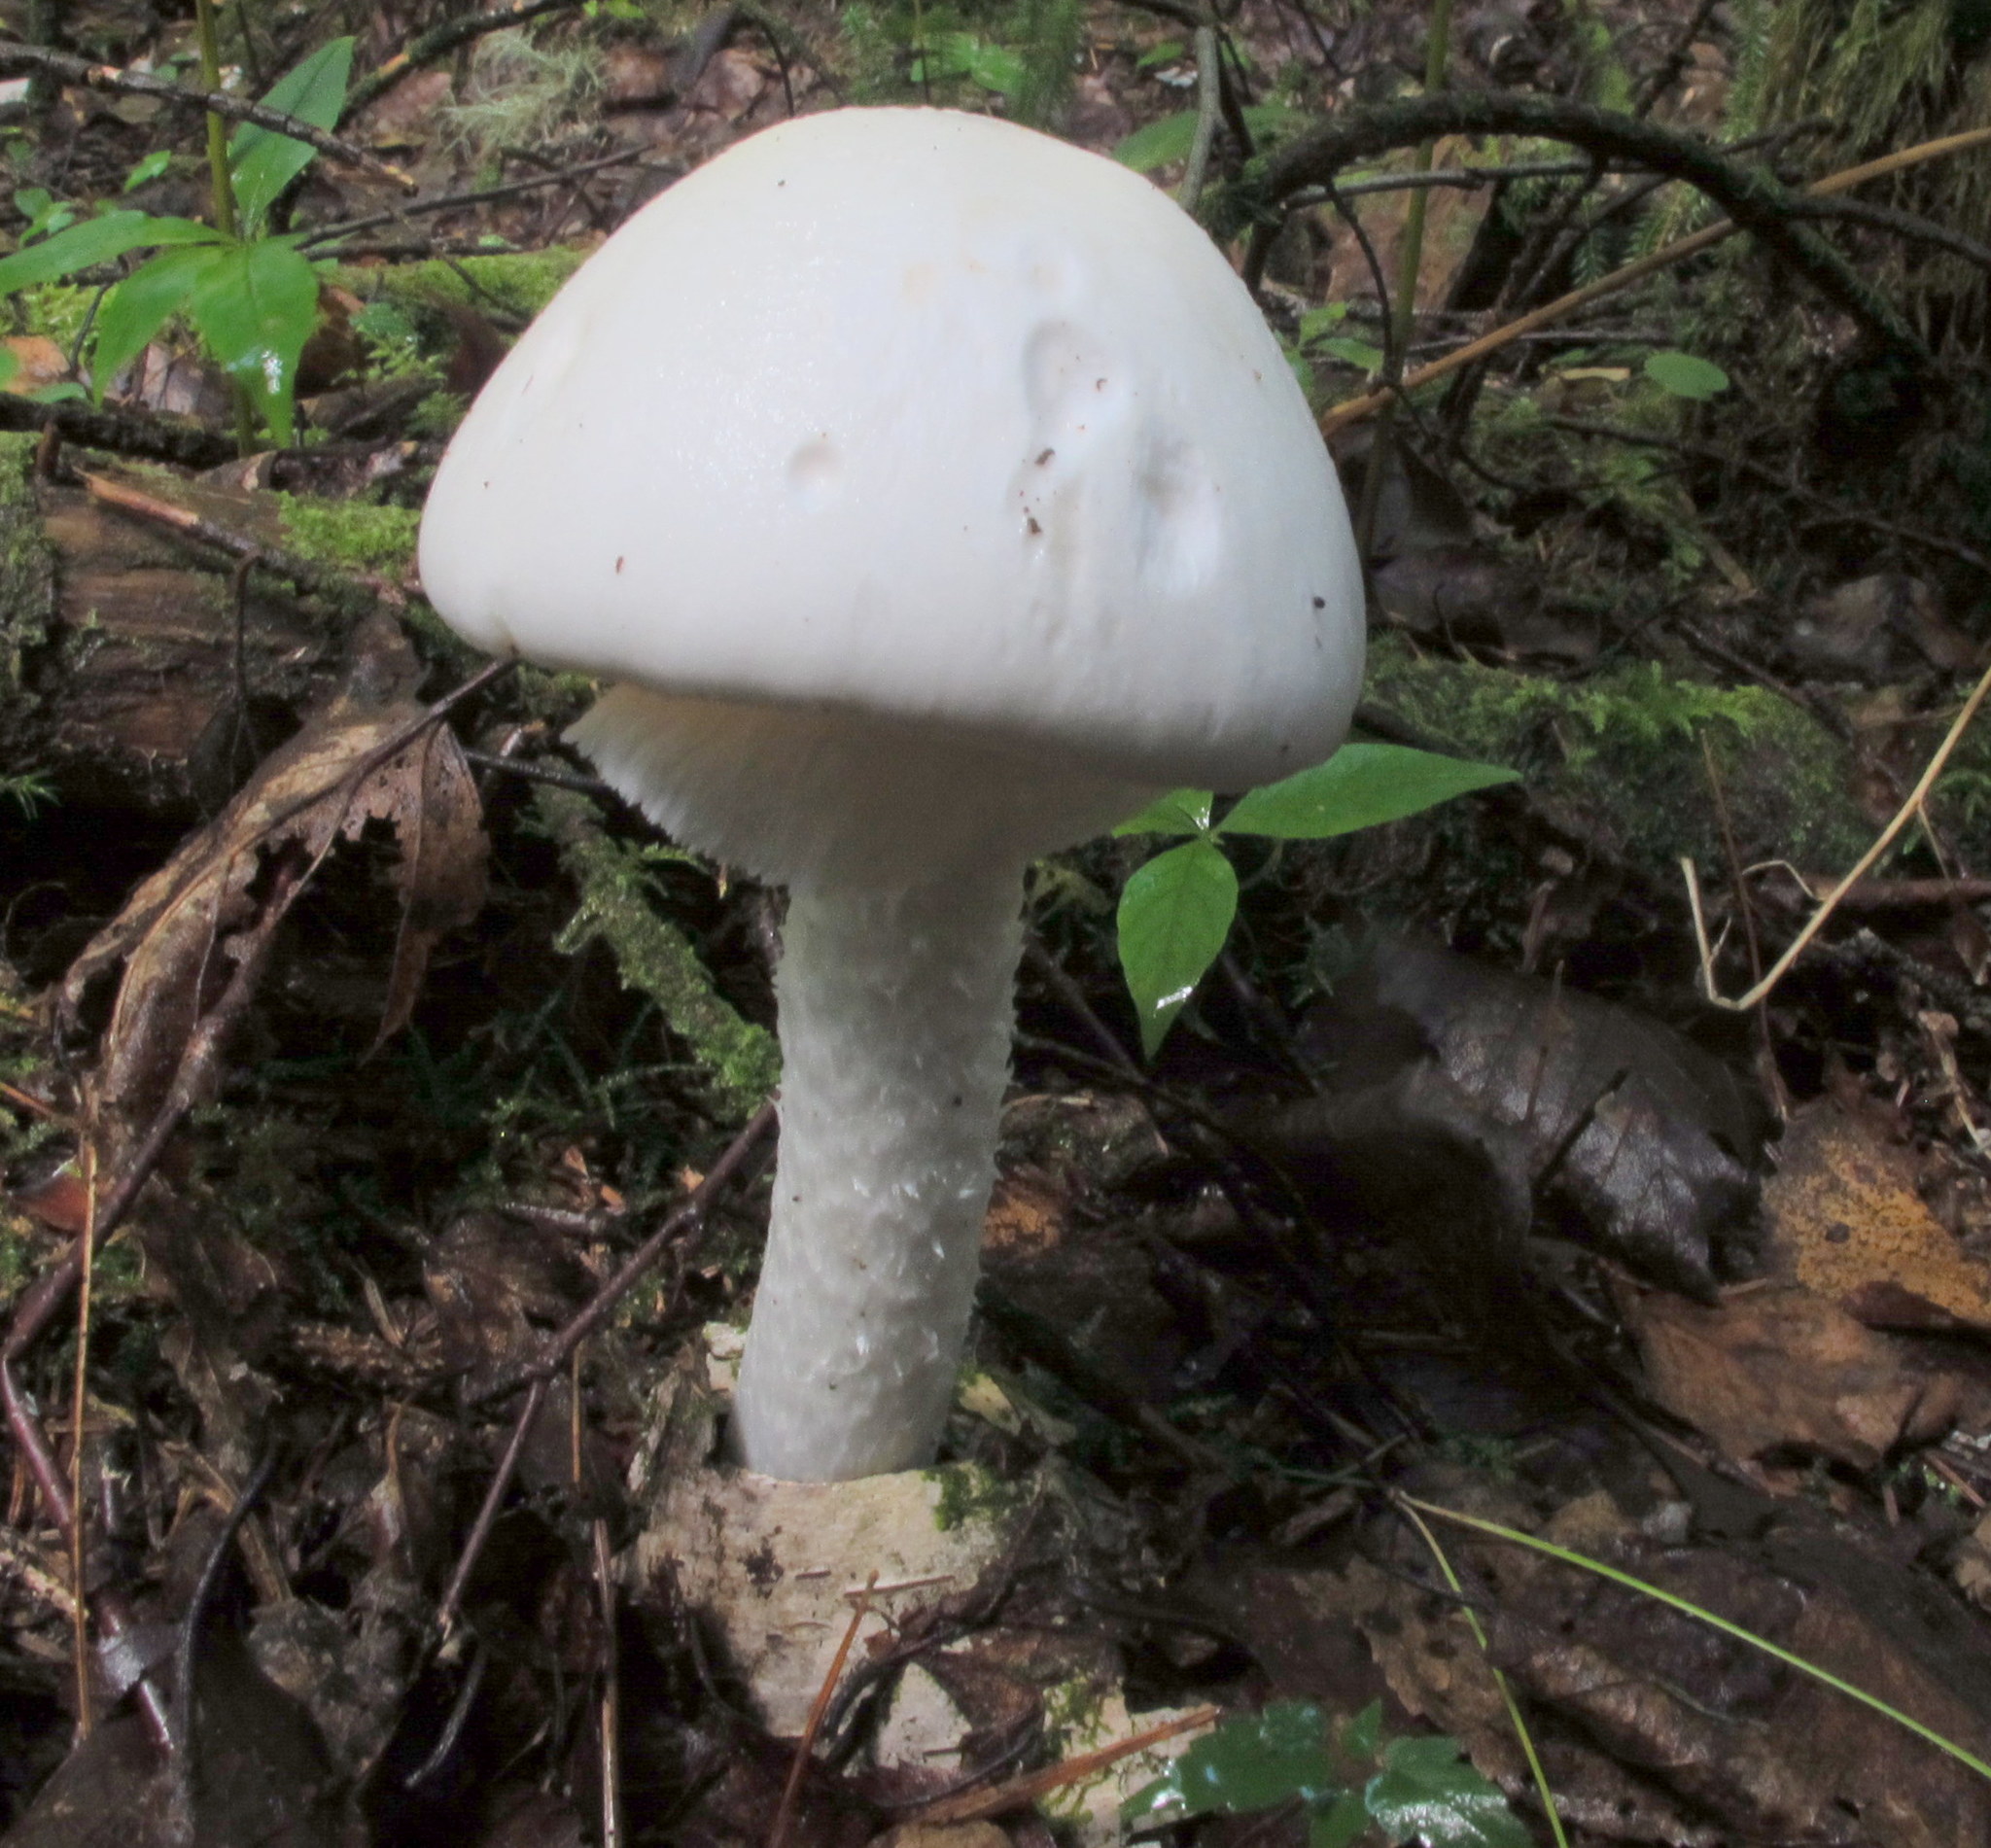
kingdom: Fungi
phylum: Basidiomycota
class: Agaricomycetes
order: Agaricales
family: Amanitaceae
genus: Amanita
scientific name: Amanita bisporigera
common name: Eastern north american destroying angel
